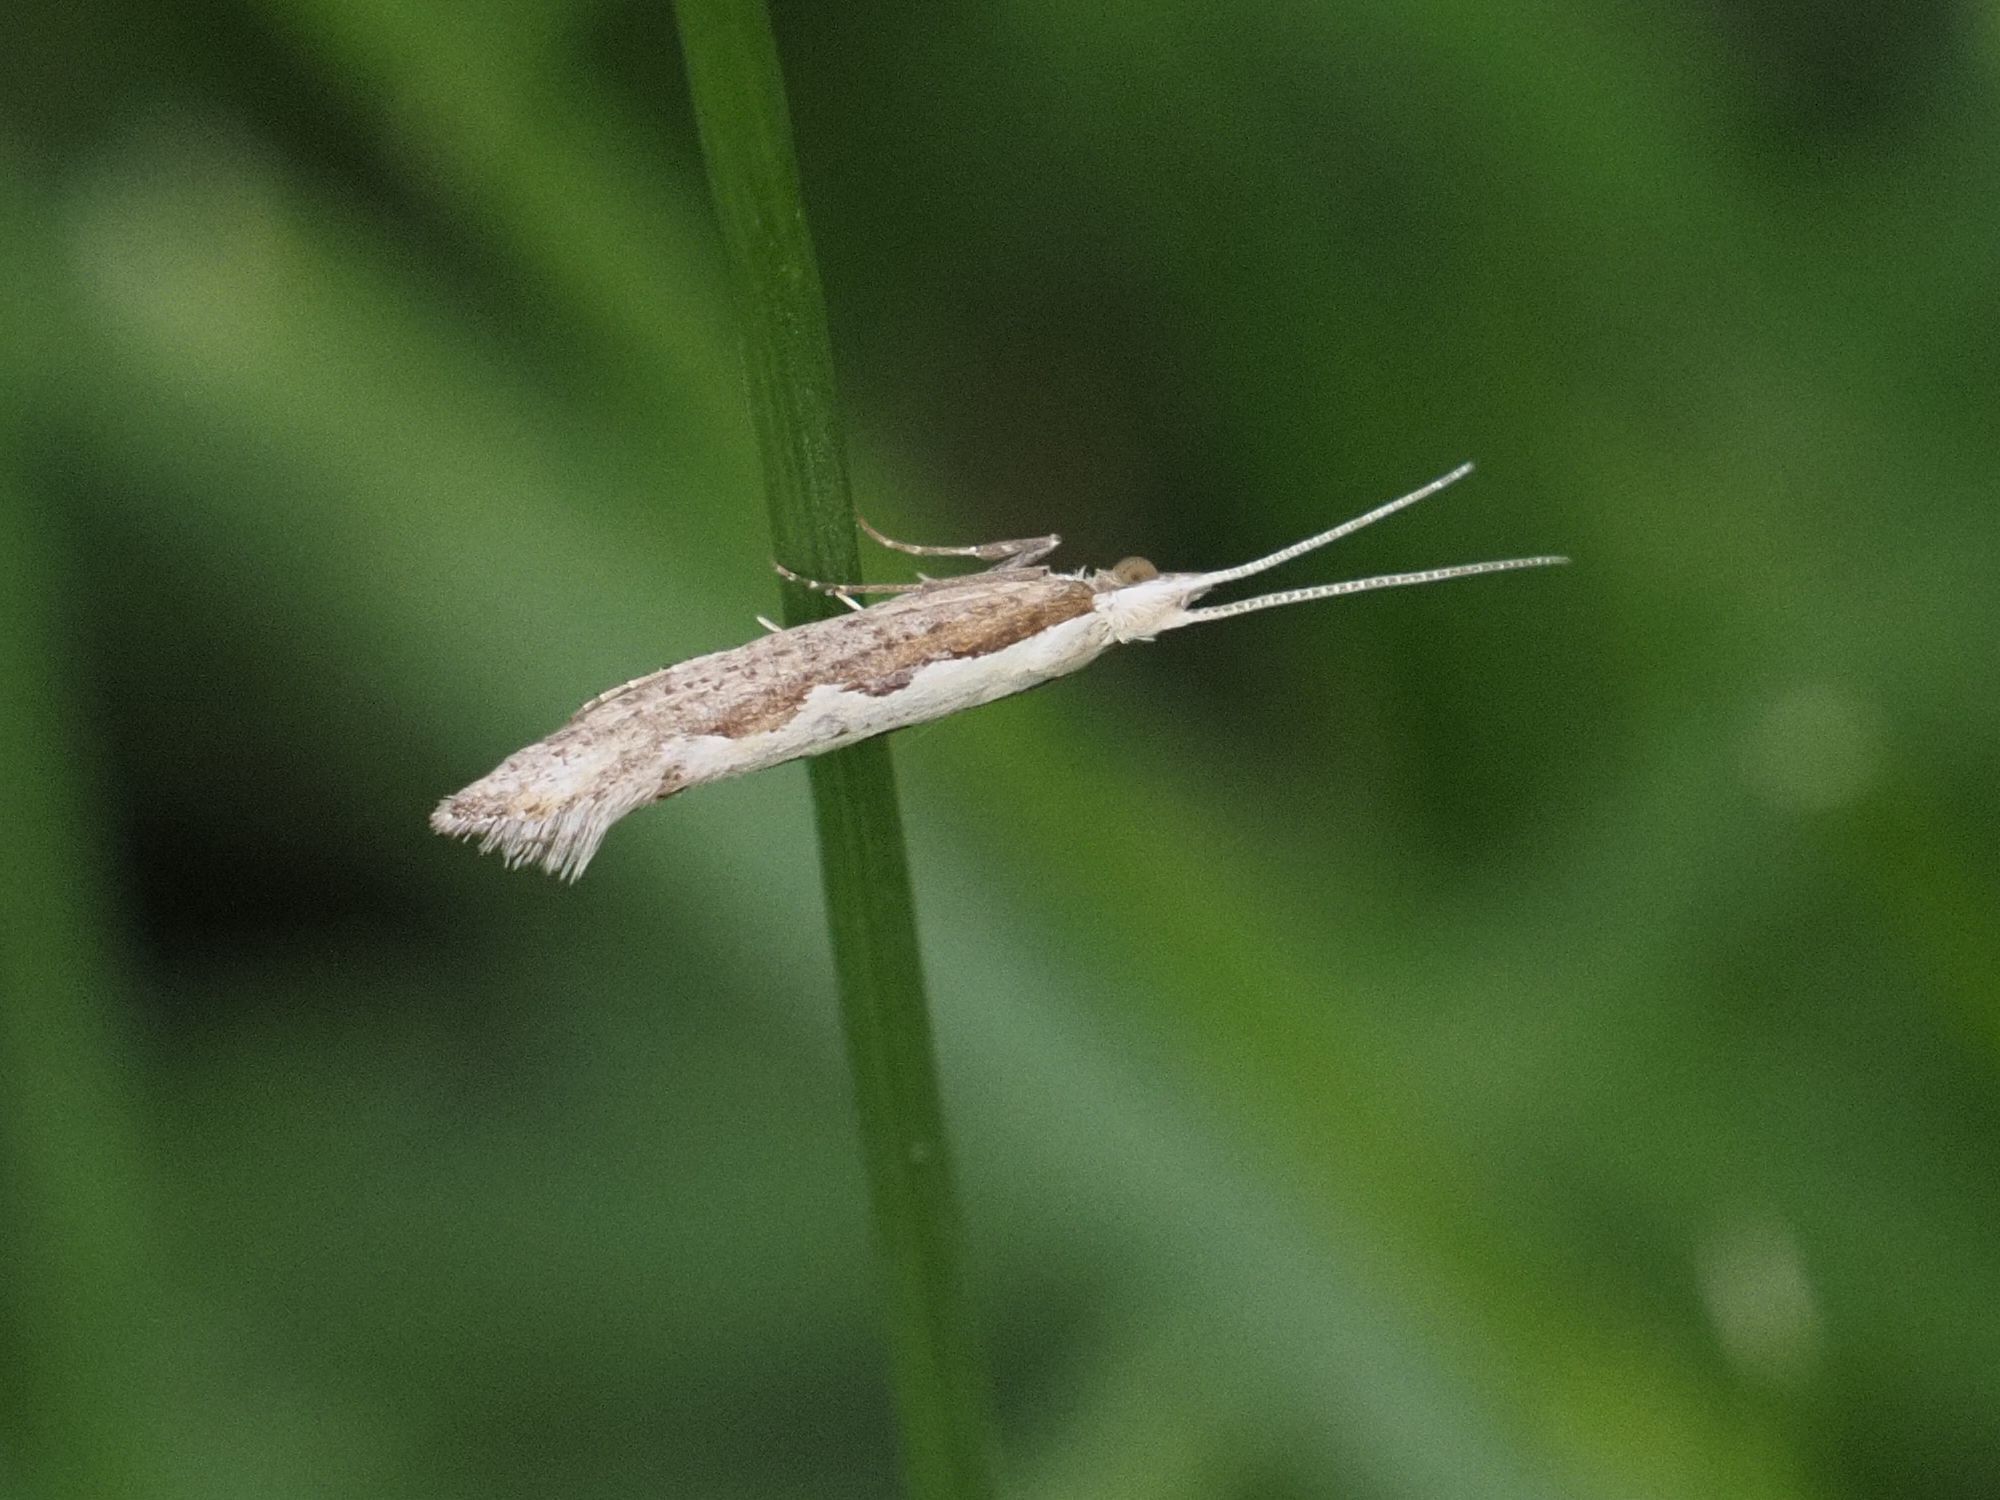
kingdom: Animalia
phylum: Arthropoda
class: Insecta
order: Lepidoptera
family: Plutellidae
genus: Plutella
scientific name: Plutella xylostella
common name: Diamond-back moth
